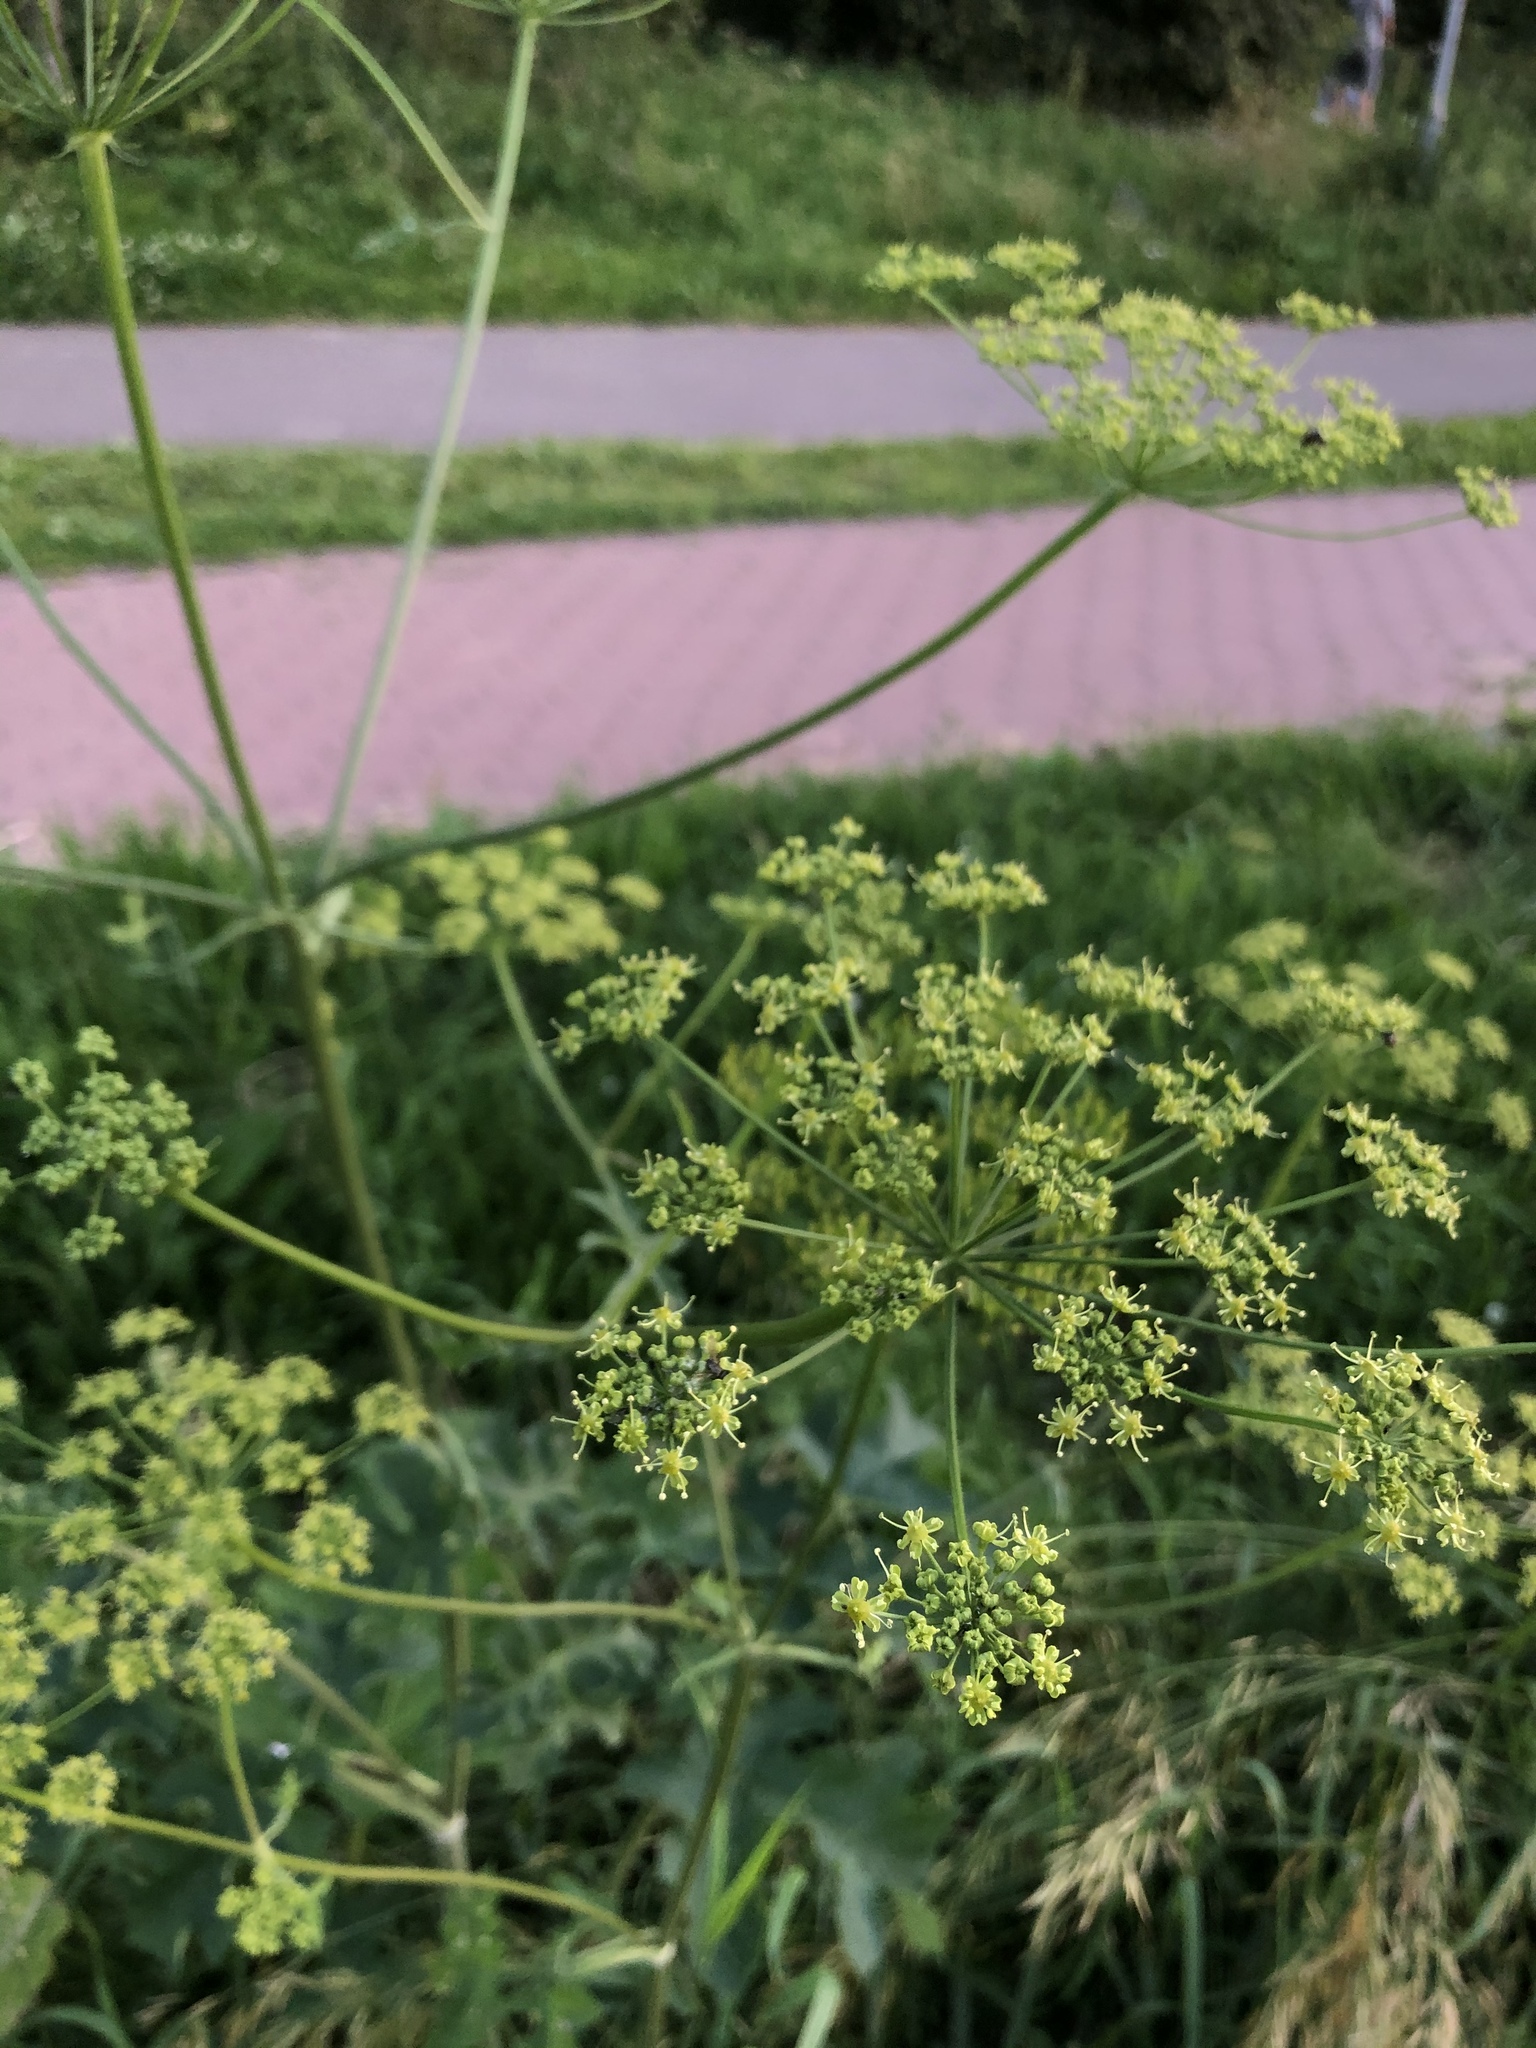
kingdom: Plantae
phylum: Tracheophyta
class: Magnoliopsida
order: Apiales
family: Apiaceae
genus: Heracleum
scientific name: Heracleum sphondylium
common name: Hogweed
